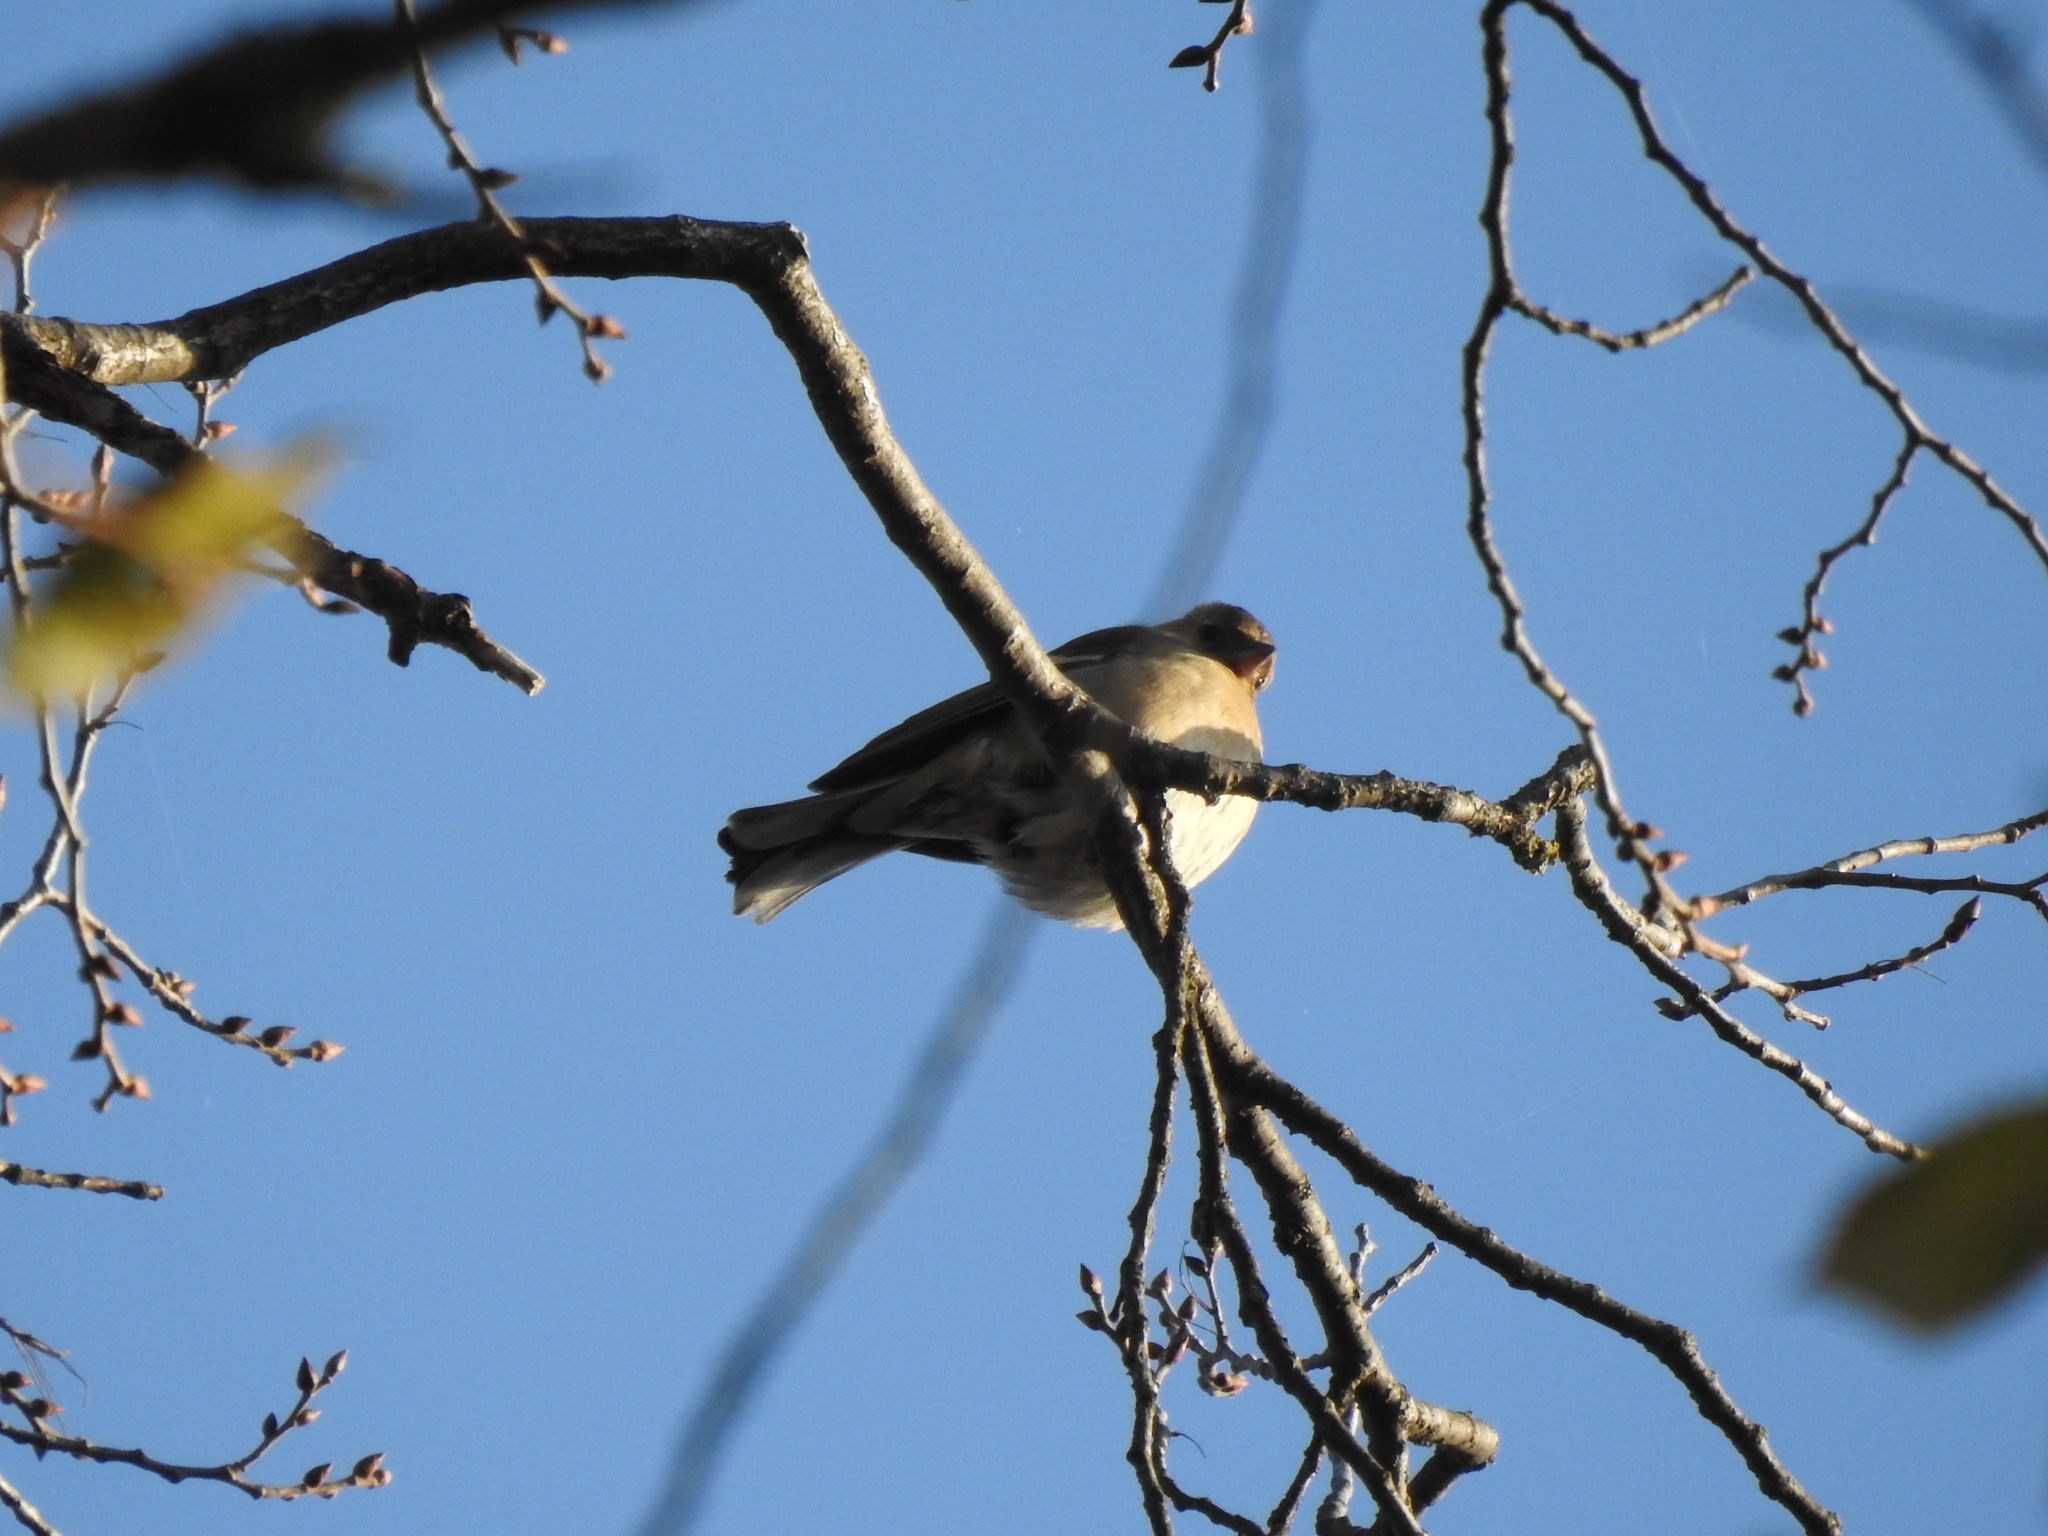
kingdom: Animalia
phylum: Chordata
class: Aves
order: Passeriformes
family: Fringillidae
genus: Fringilla
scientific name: Fringilla coelebs
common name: Common chaffinch
